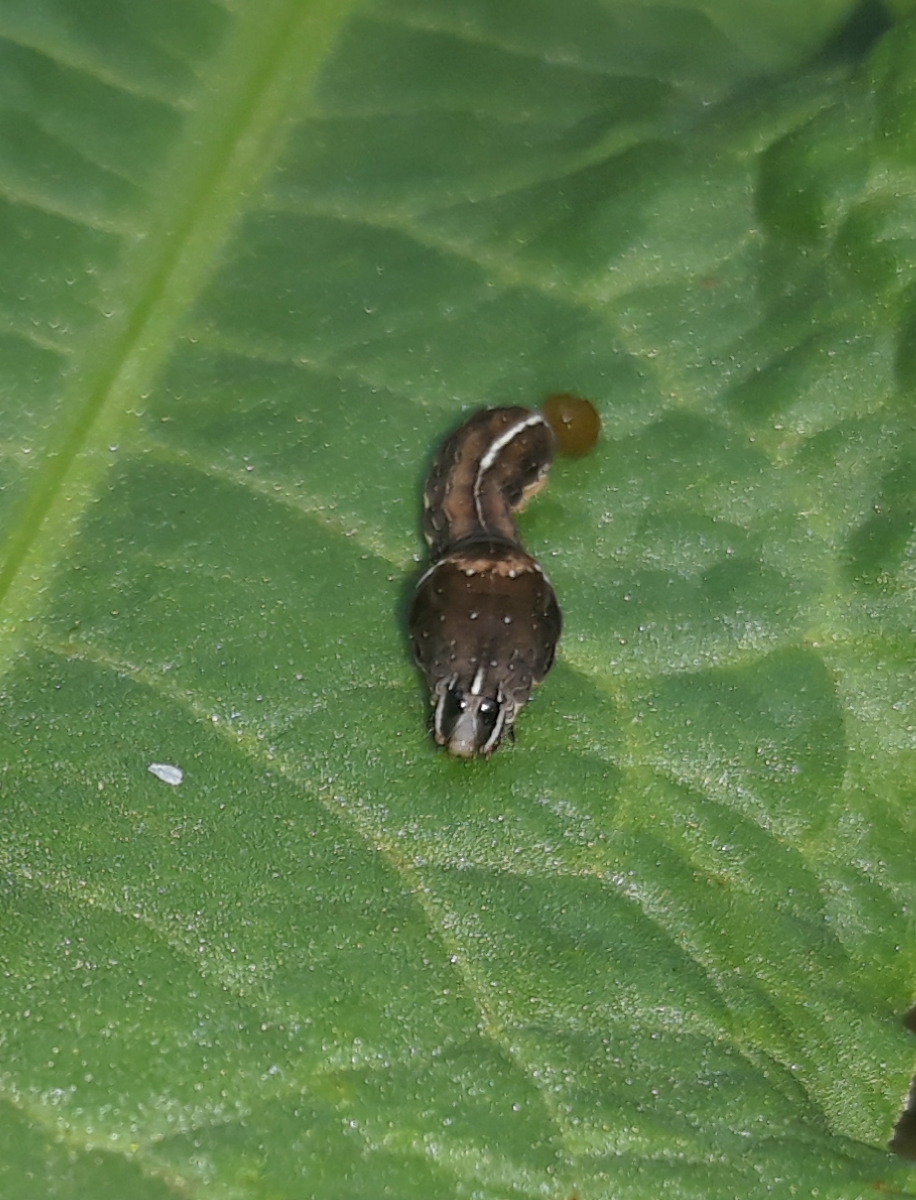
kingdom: Animalia
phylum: Arthropoda
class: Insecta
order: Lepidoptera
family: Noctuidae
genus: Galgula
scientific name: Galgula partita
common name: Wedgeling
